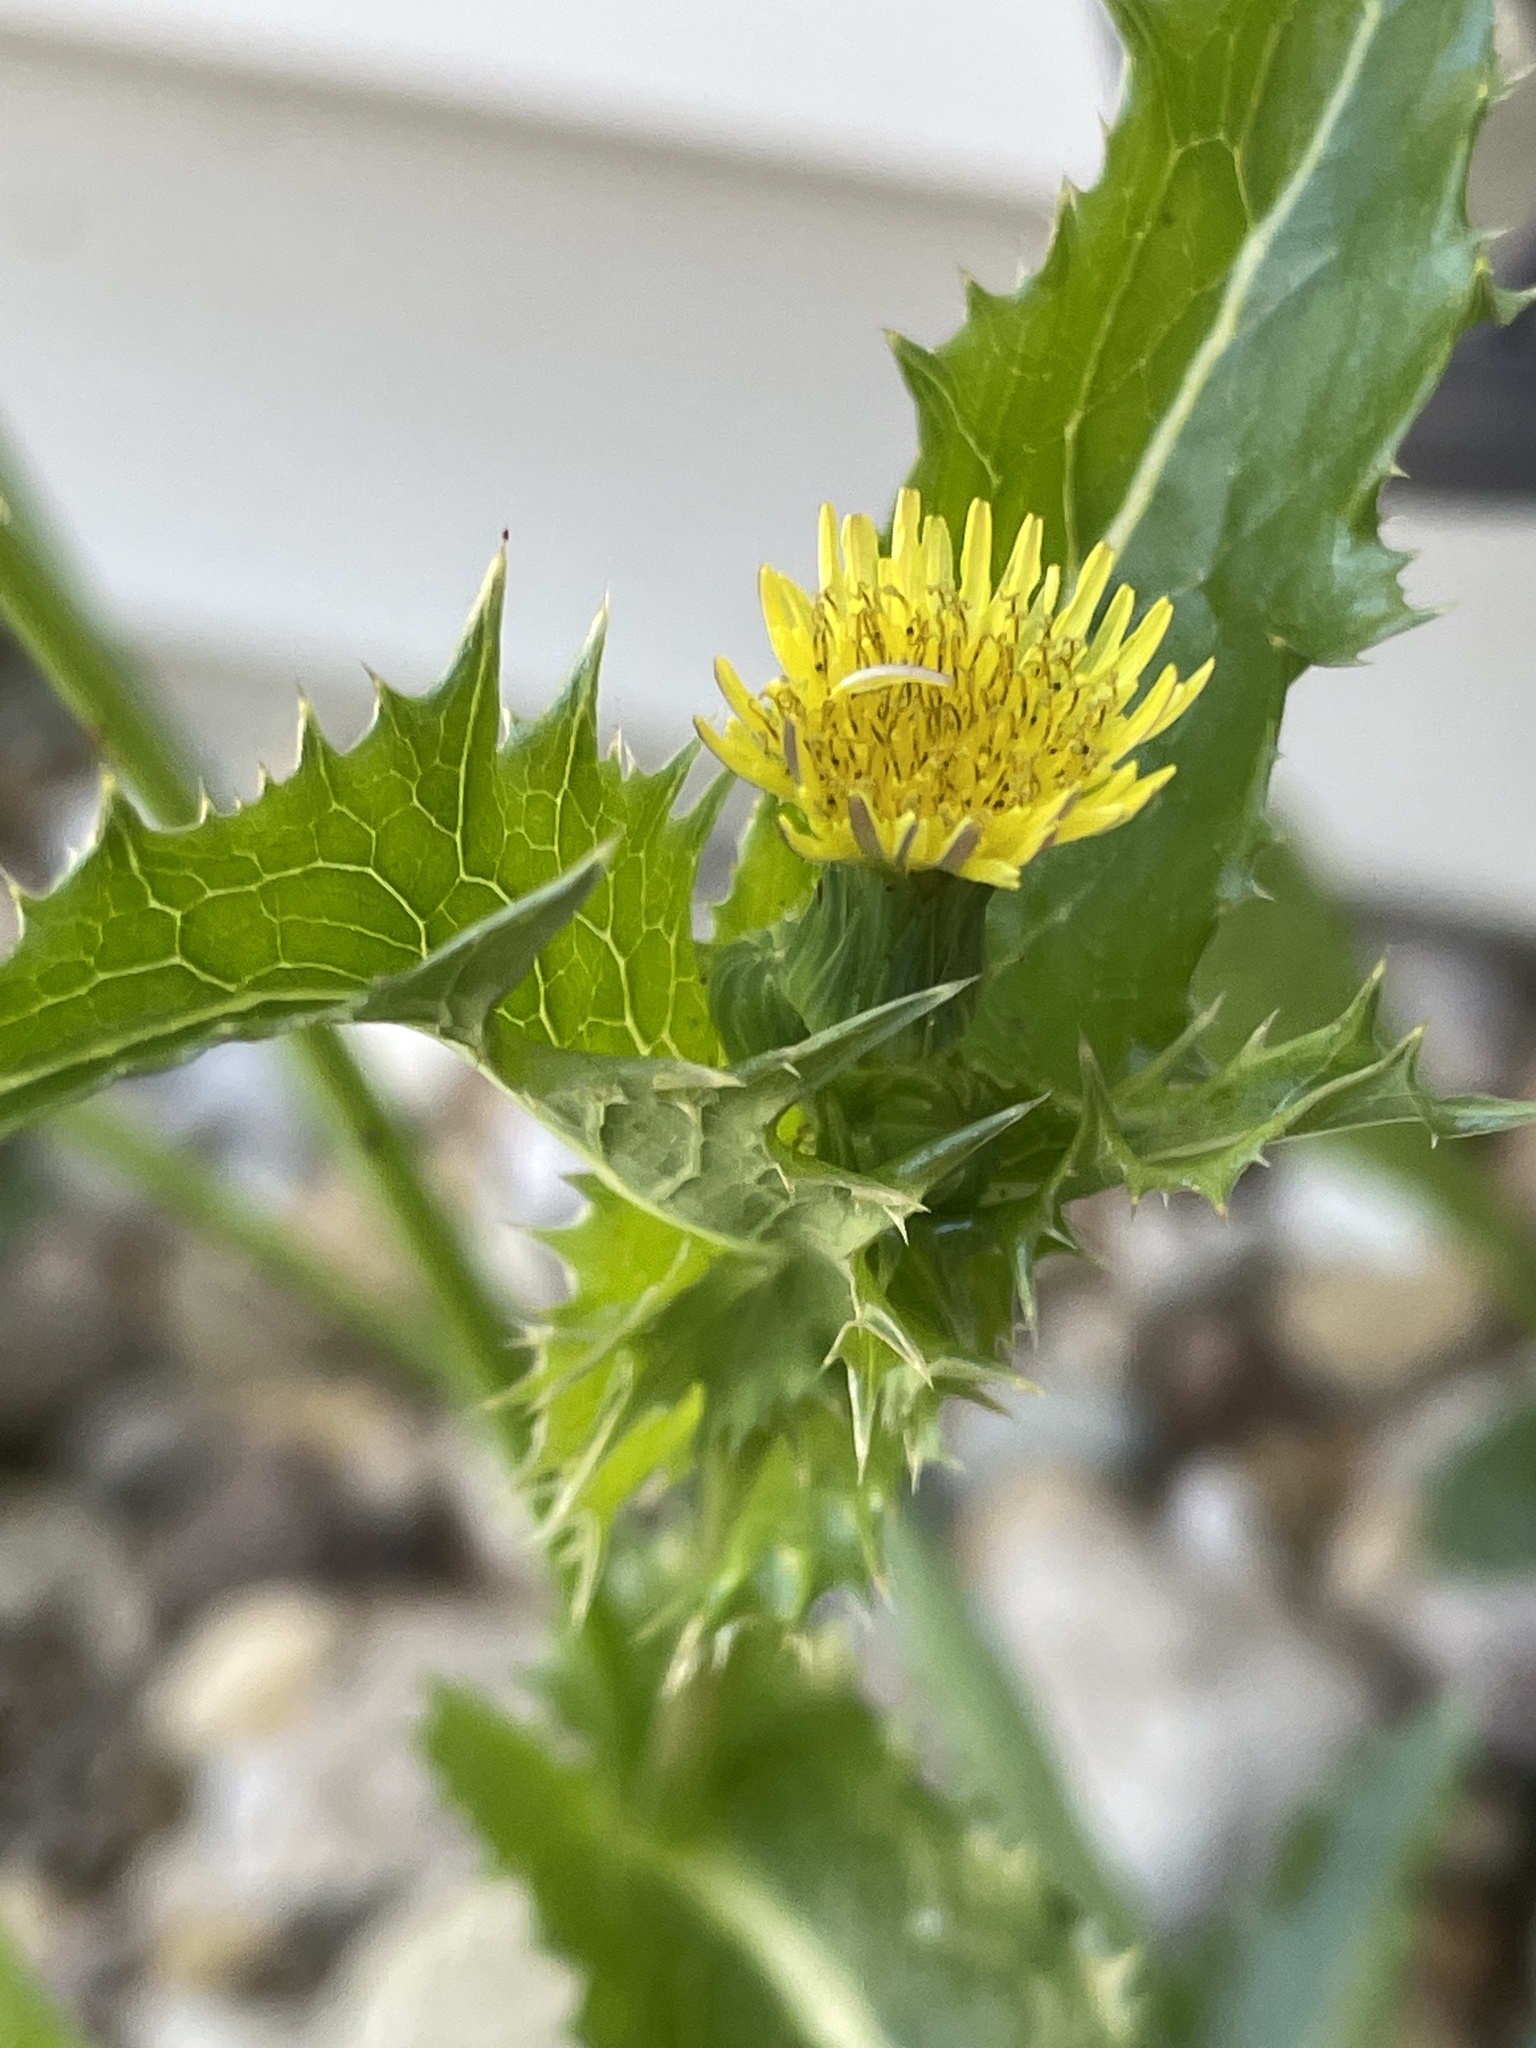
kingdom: Plantae
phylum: Tracheophyta
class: Magnoliopsida
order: Asterales
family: Asteraceae
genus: Sonchus
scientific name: Sonchus asper
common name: Prickly sow-thistle
